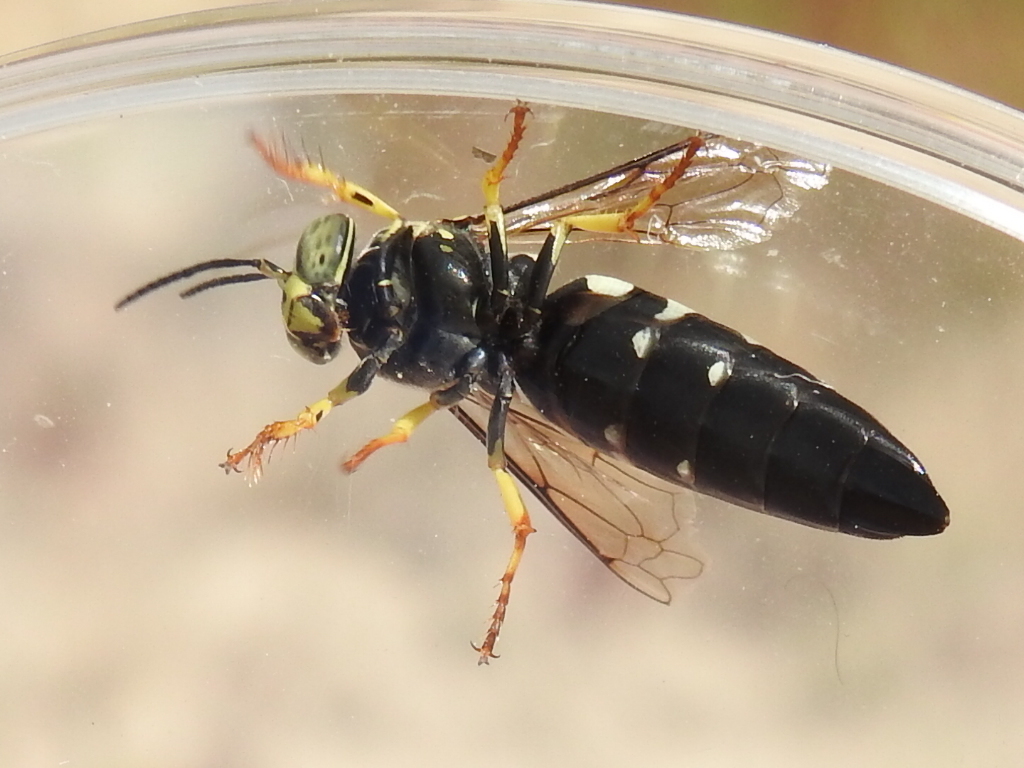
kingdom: Animalia
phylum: Arthropoda
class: Insecta
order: Hymenoptera
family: Crabronidae
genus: Bicyrtes
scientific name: Bicyrtes quadrifasciatus
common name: Four-banded stink bug hunter wasp
